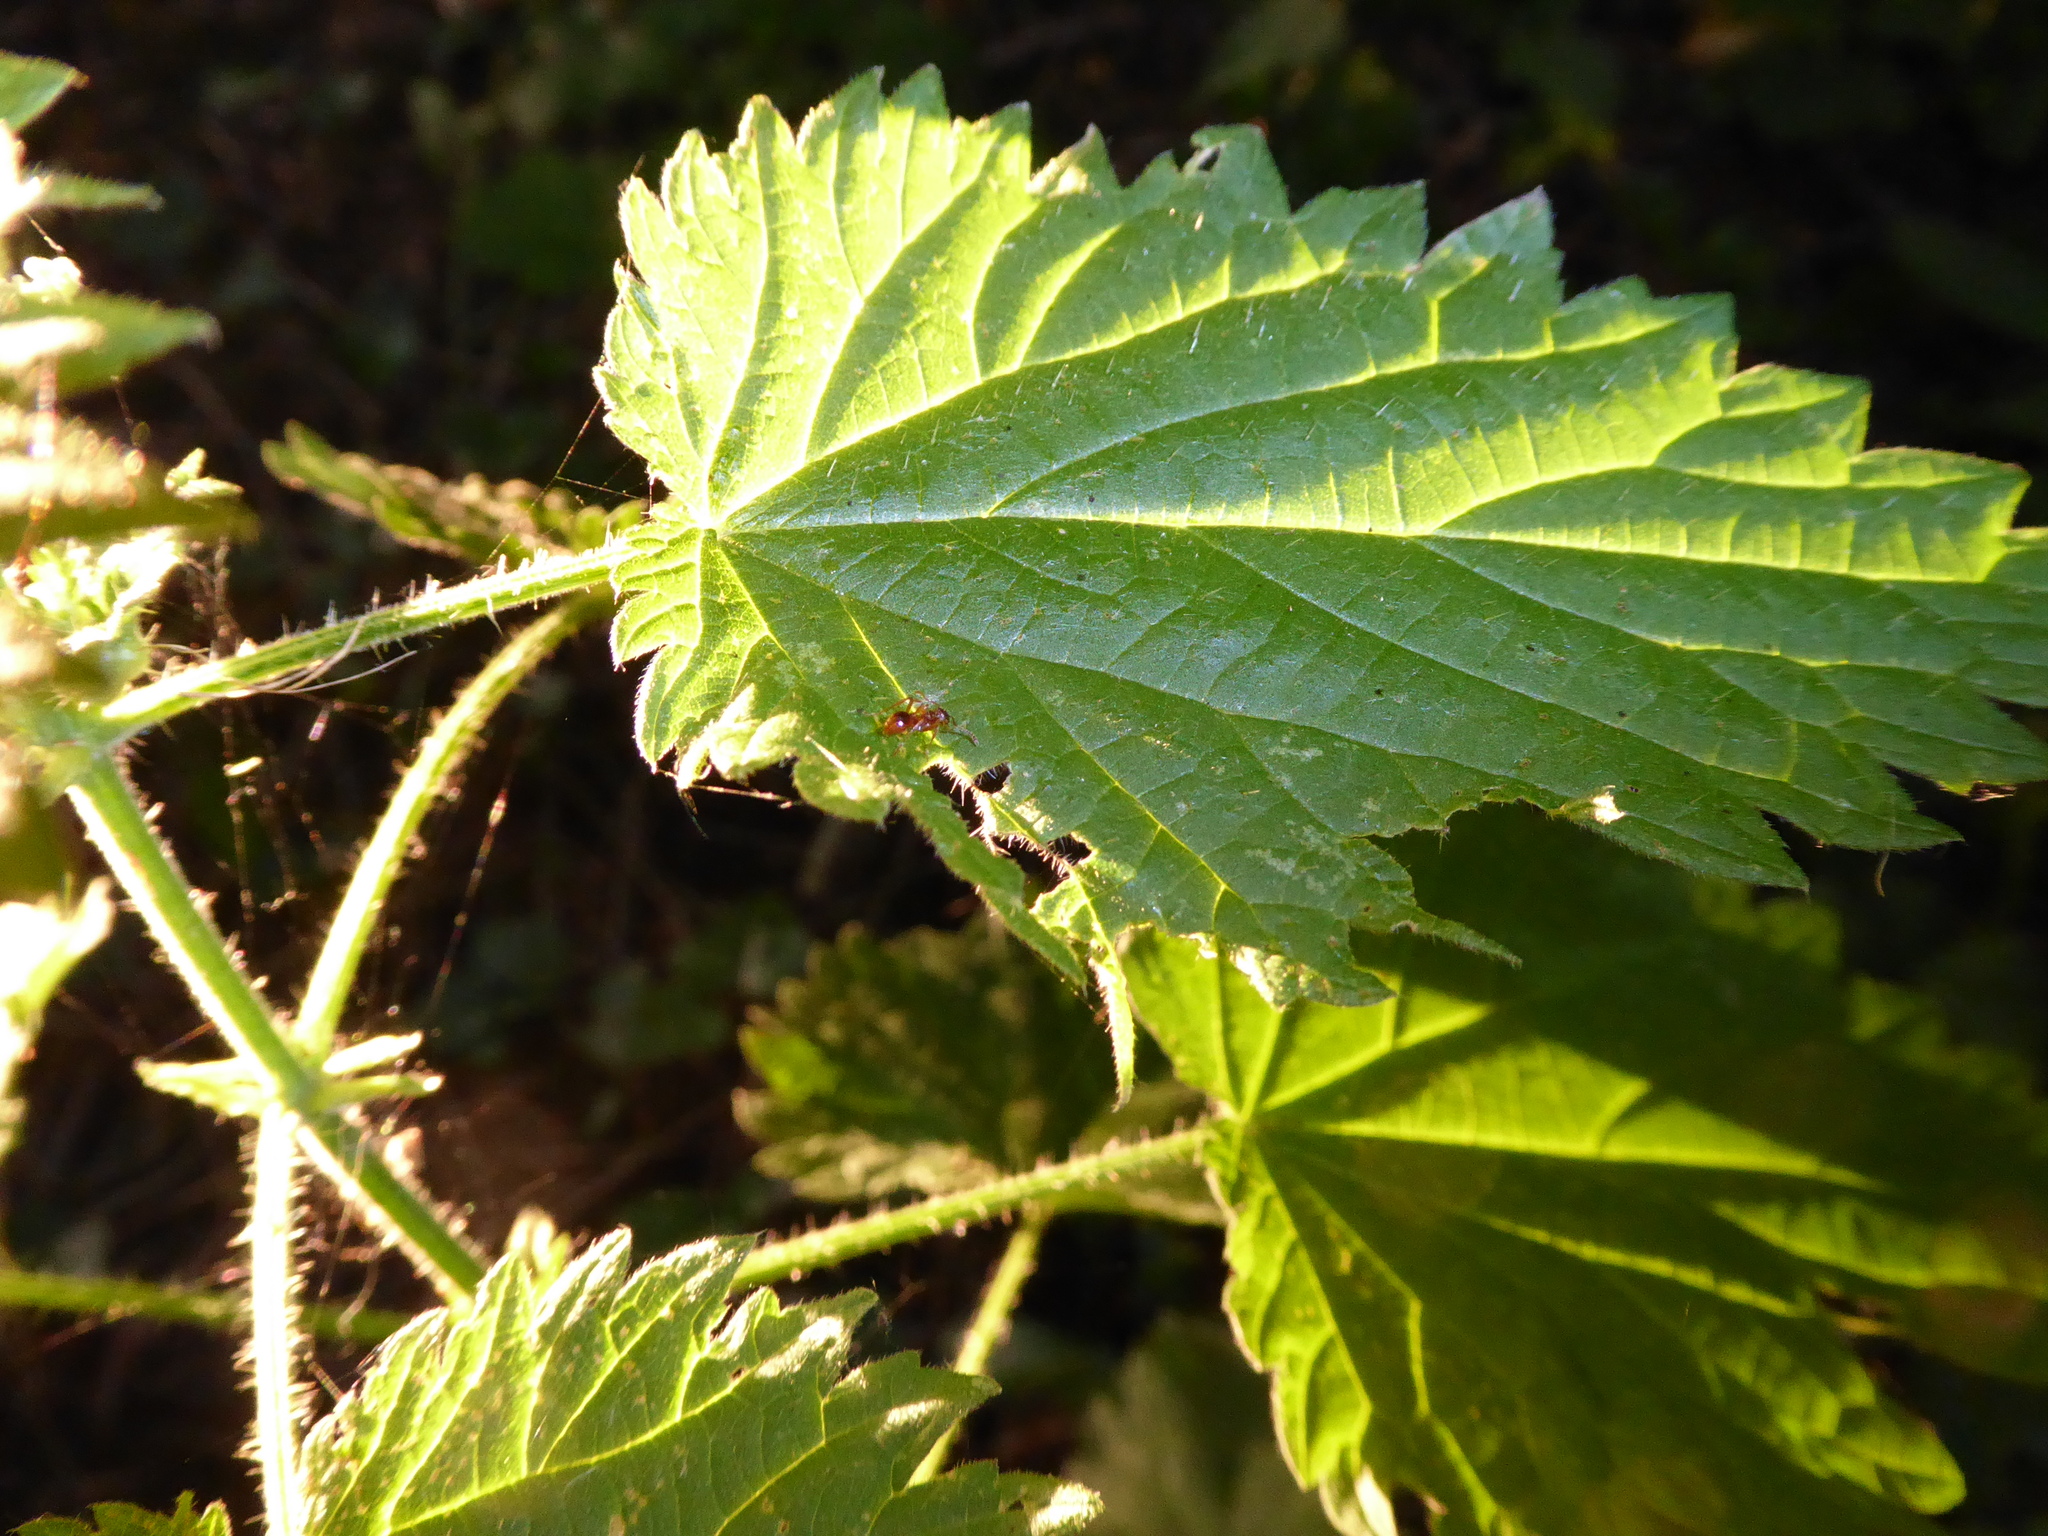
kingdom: Animalia
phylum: Arthropoda
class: Insecta
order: Hymenoptera
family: Formicidae
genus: Myrmica
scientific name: Myrmica
